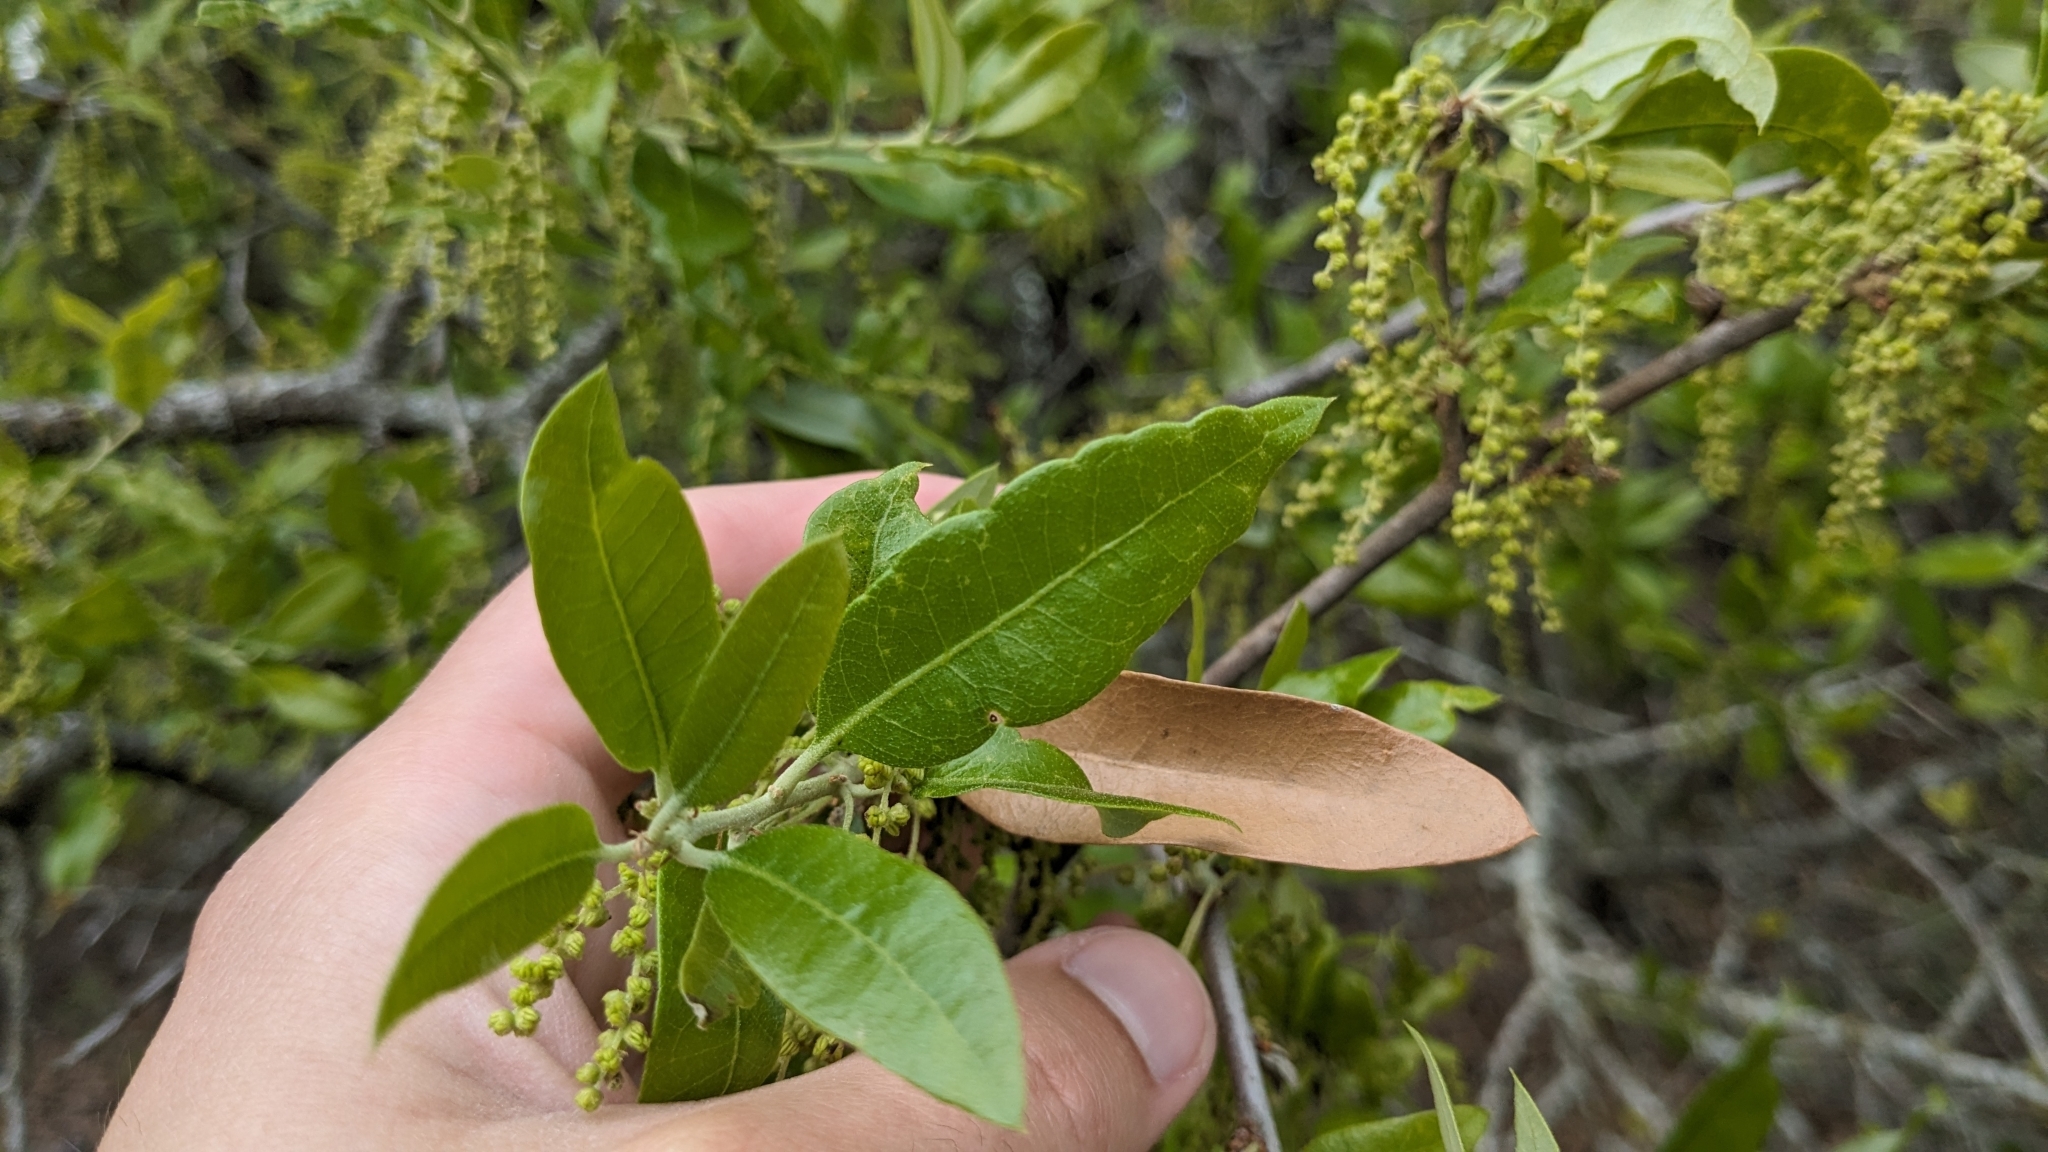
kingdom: Animalia
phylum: Arthropoda
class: Insecta
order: Hymenoptera
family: Cynipidae
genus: Disholcaspis
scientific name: Disholcaspis
